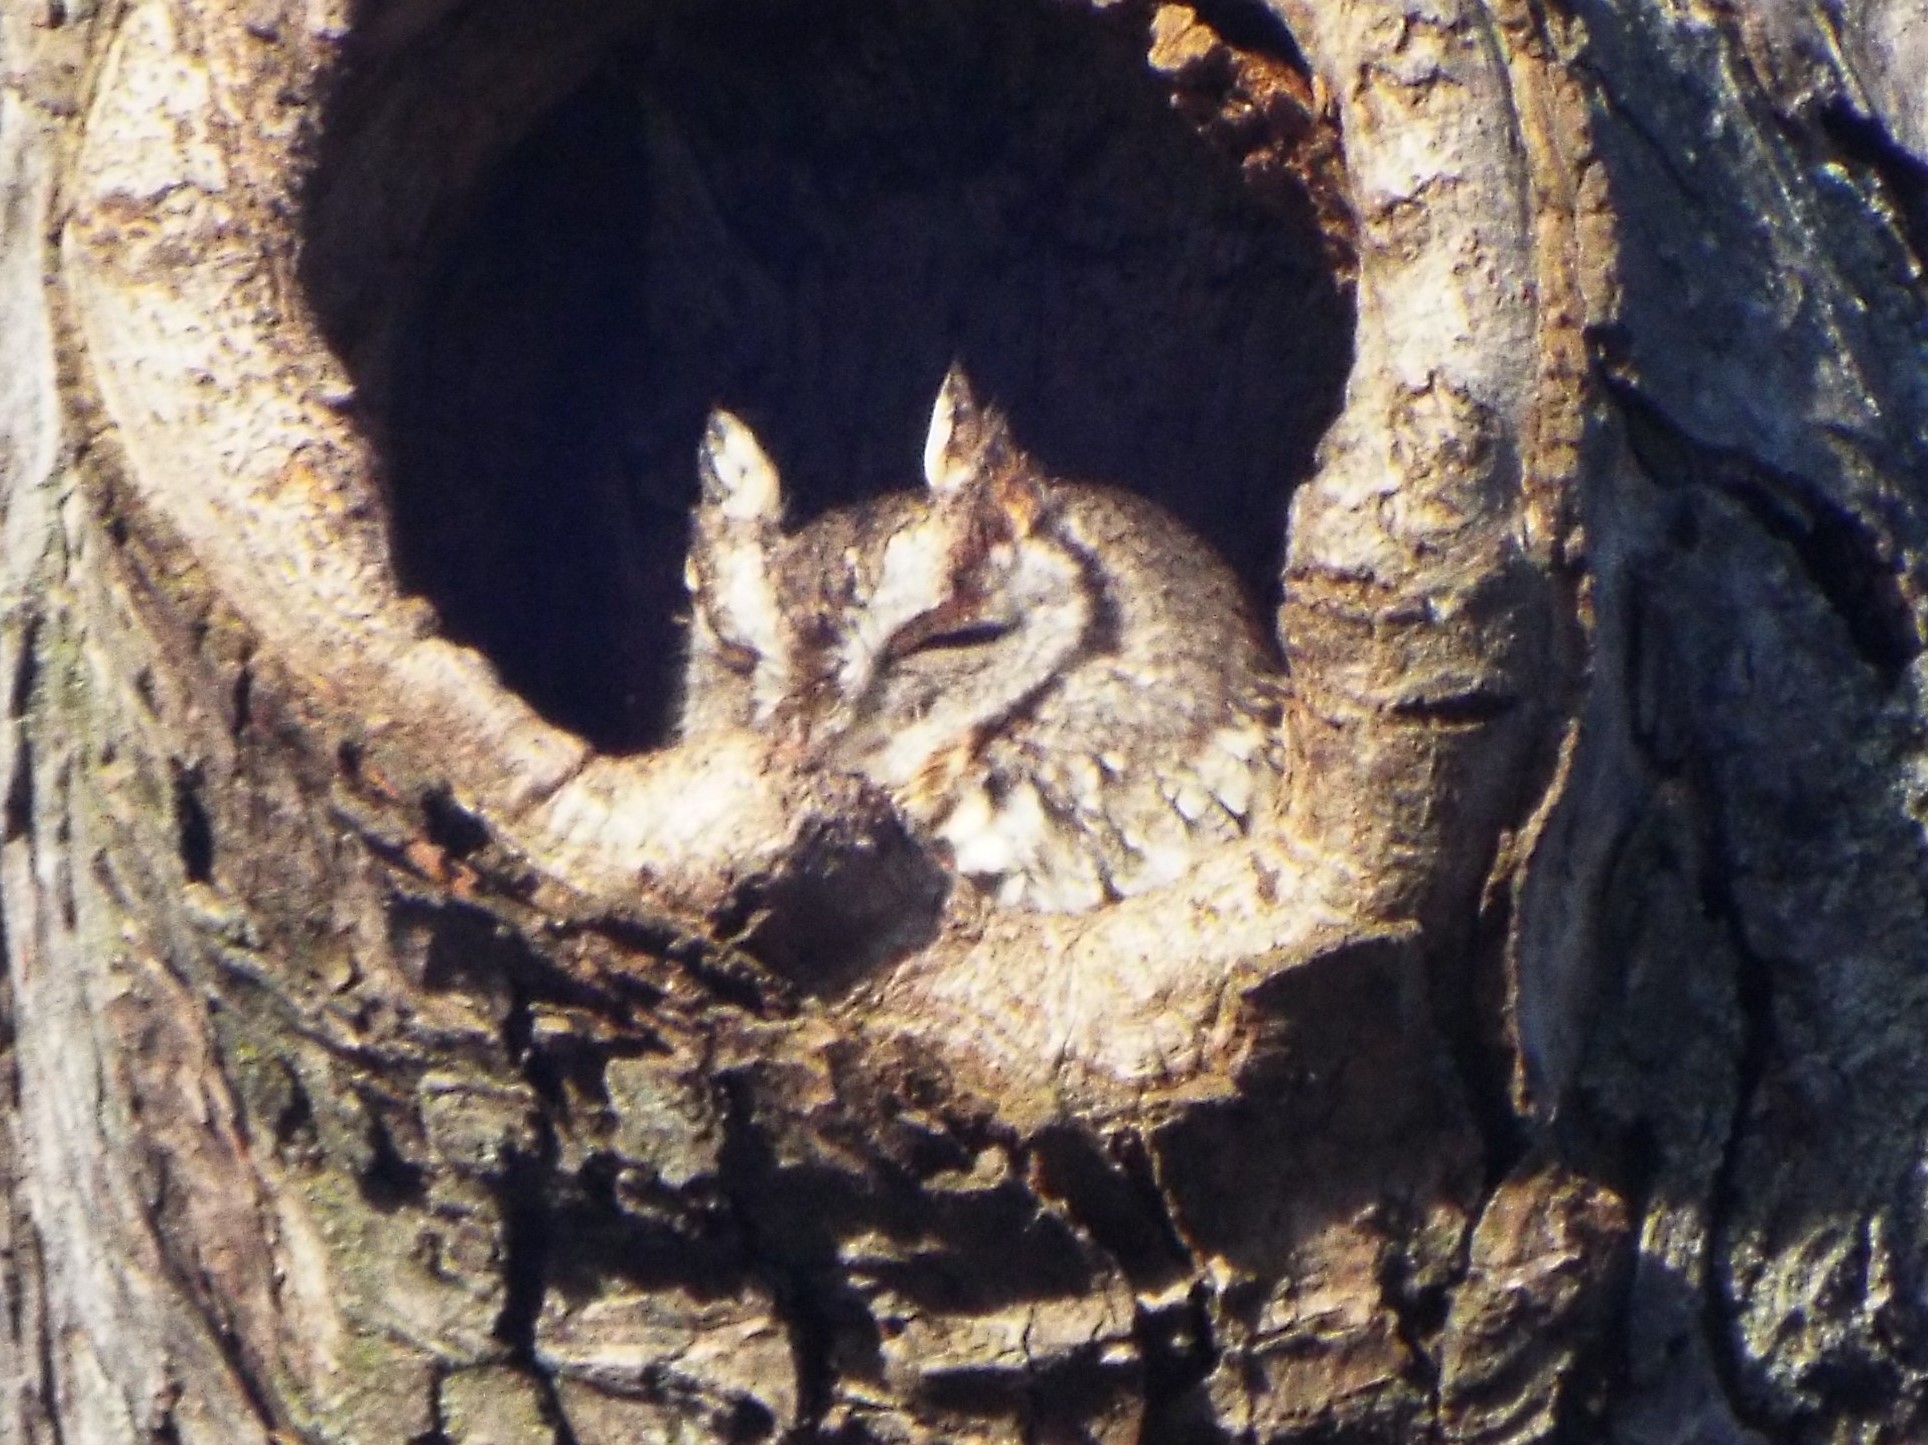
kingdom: Animalia
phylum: Chordata
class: Aves
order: Strigiformes
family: Strigidae
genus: Megascops
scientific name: Megascops asio
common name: Eastern screech-owl
